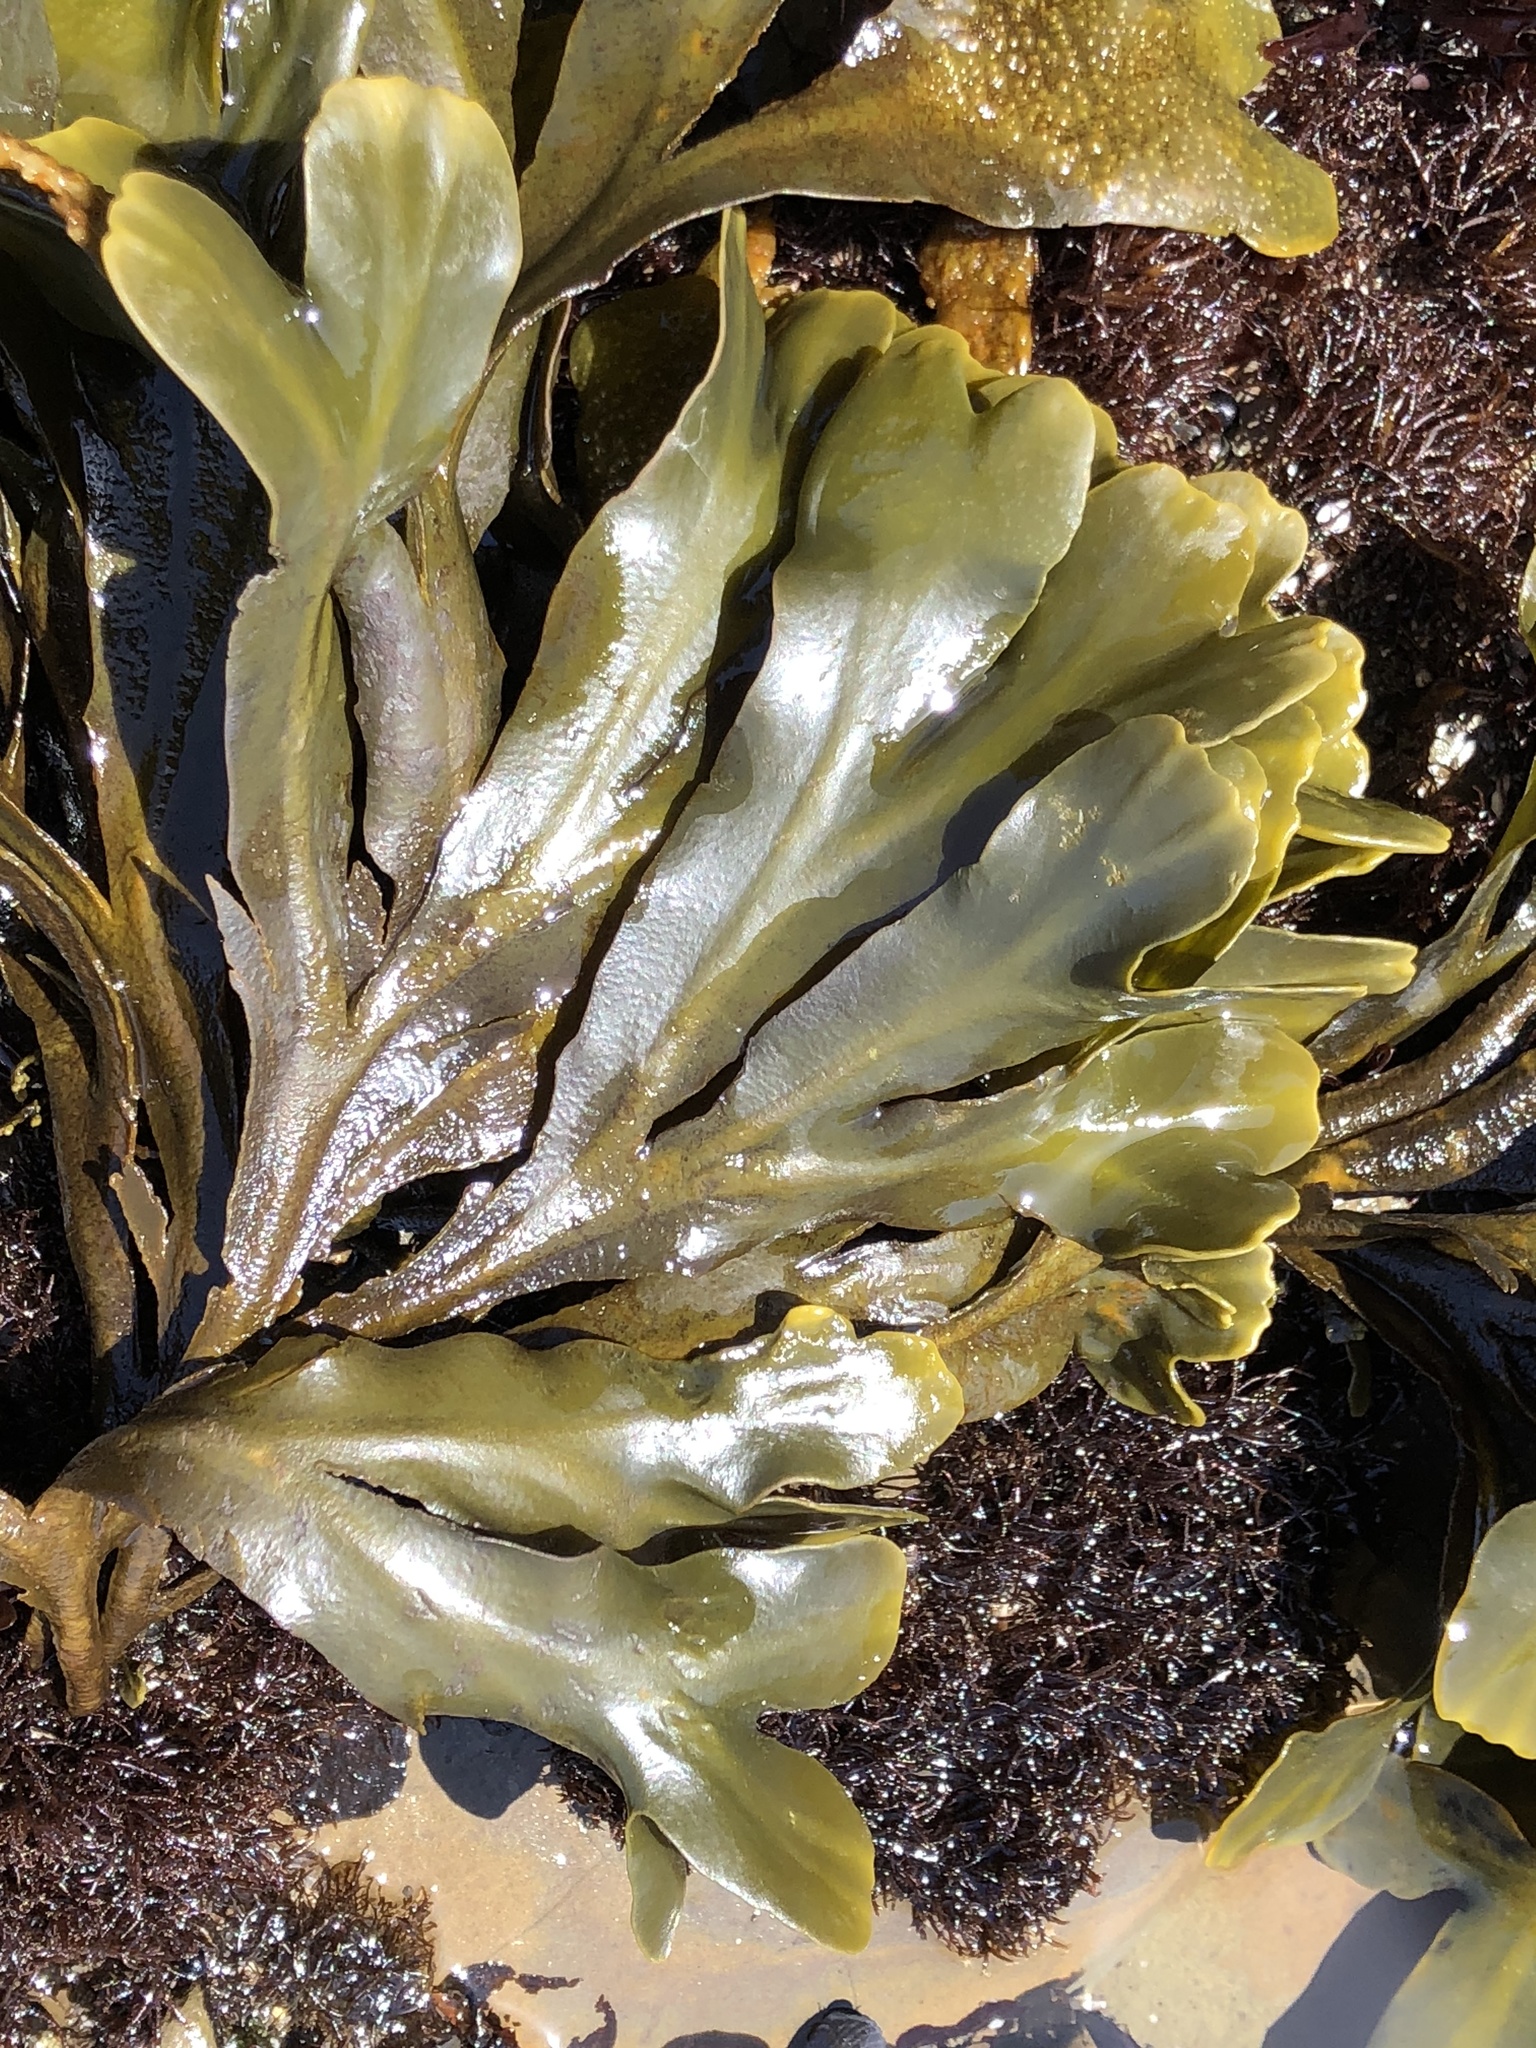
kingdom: Chromista
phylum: Ochrophyta
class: Phaeophyceae
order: Fucales
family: Fucaceae
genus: Fucus
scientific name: Fucus distichus
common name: Rockweed
